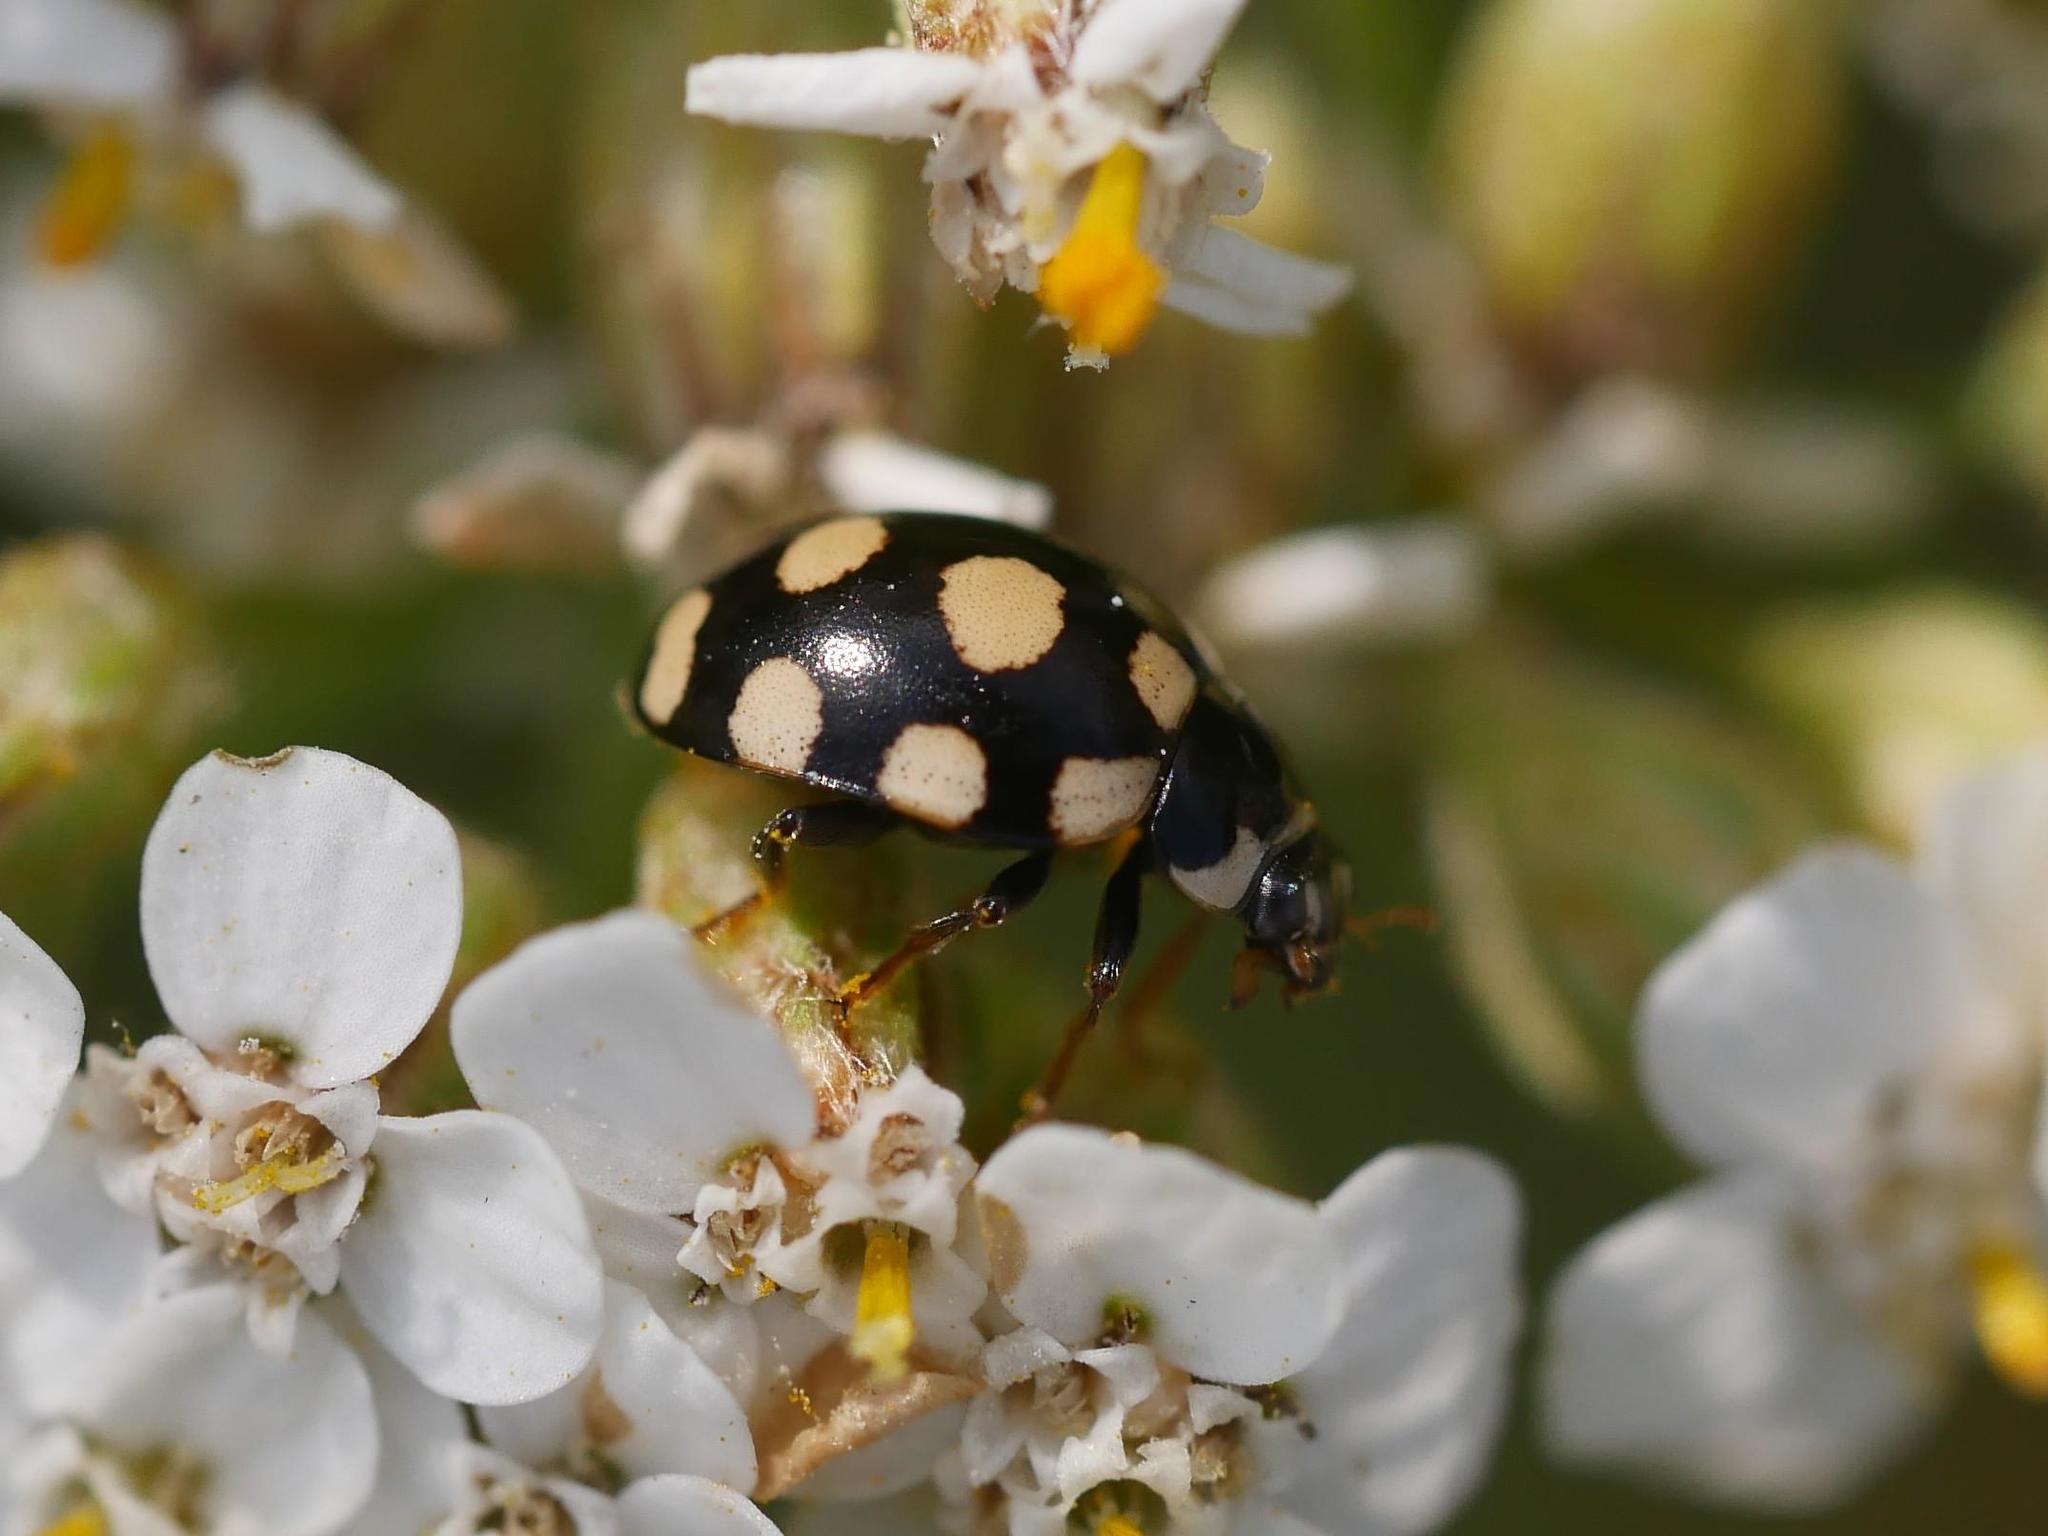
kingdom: Animalia
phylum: Arthropoda
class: Insecta
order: Coleoptera
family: Coccinellidae
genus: Coccinula
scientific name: Coccinula quatuordecimpustulata
